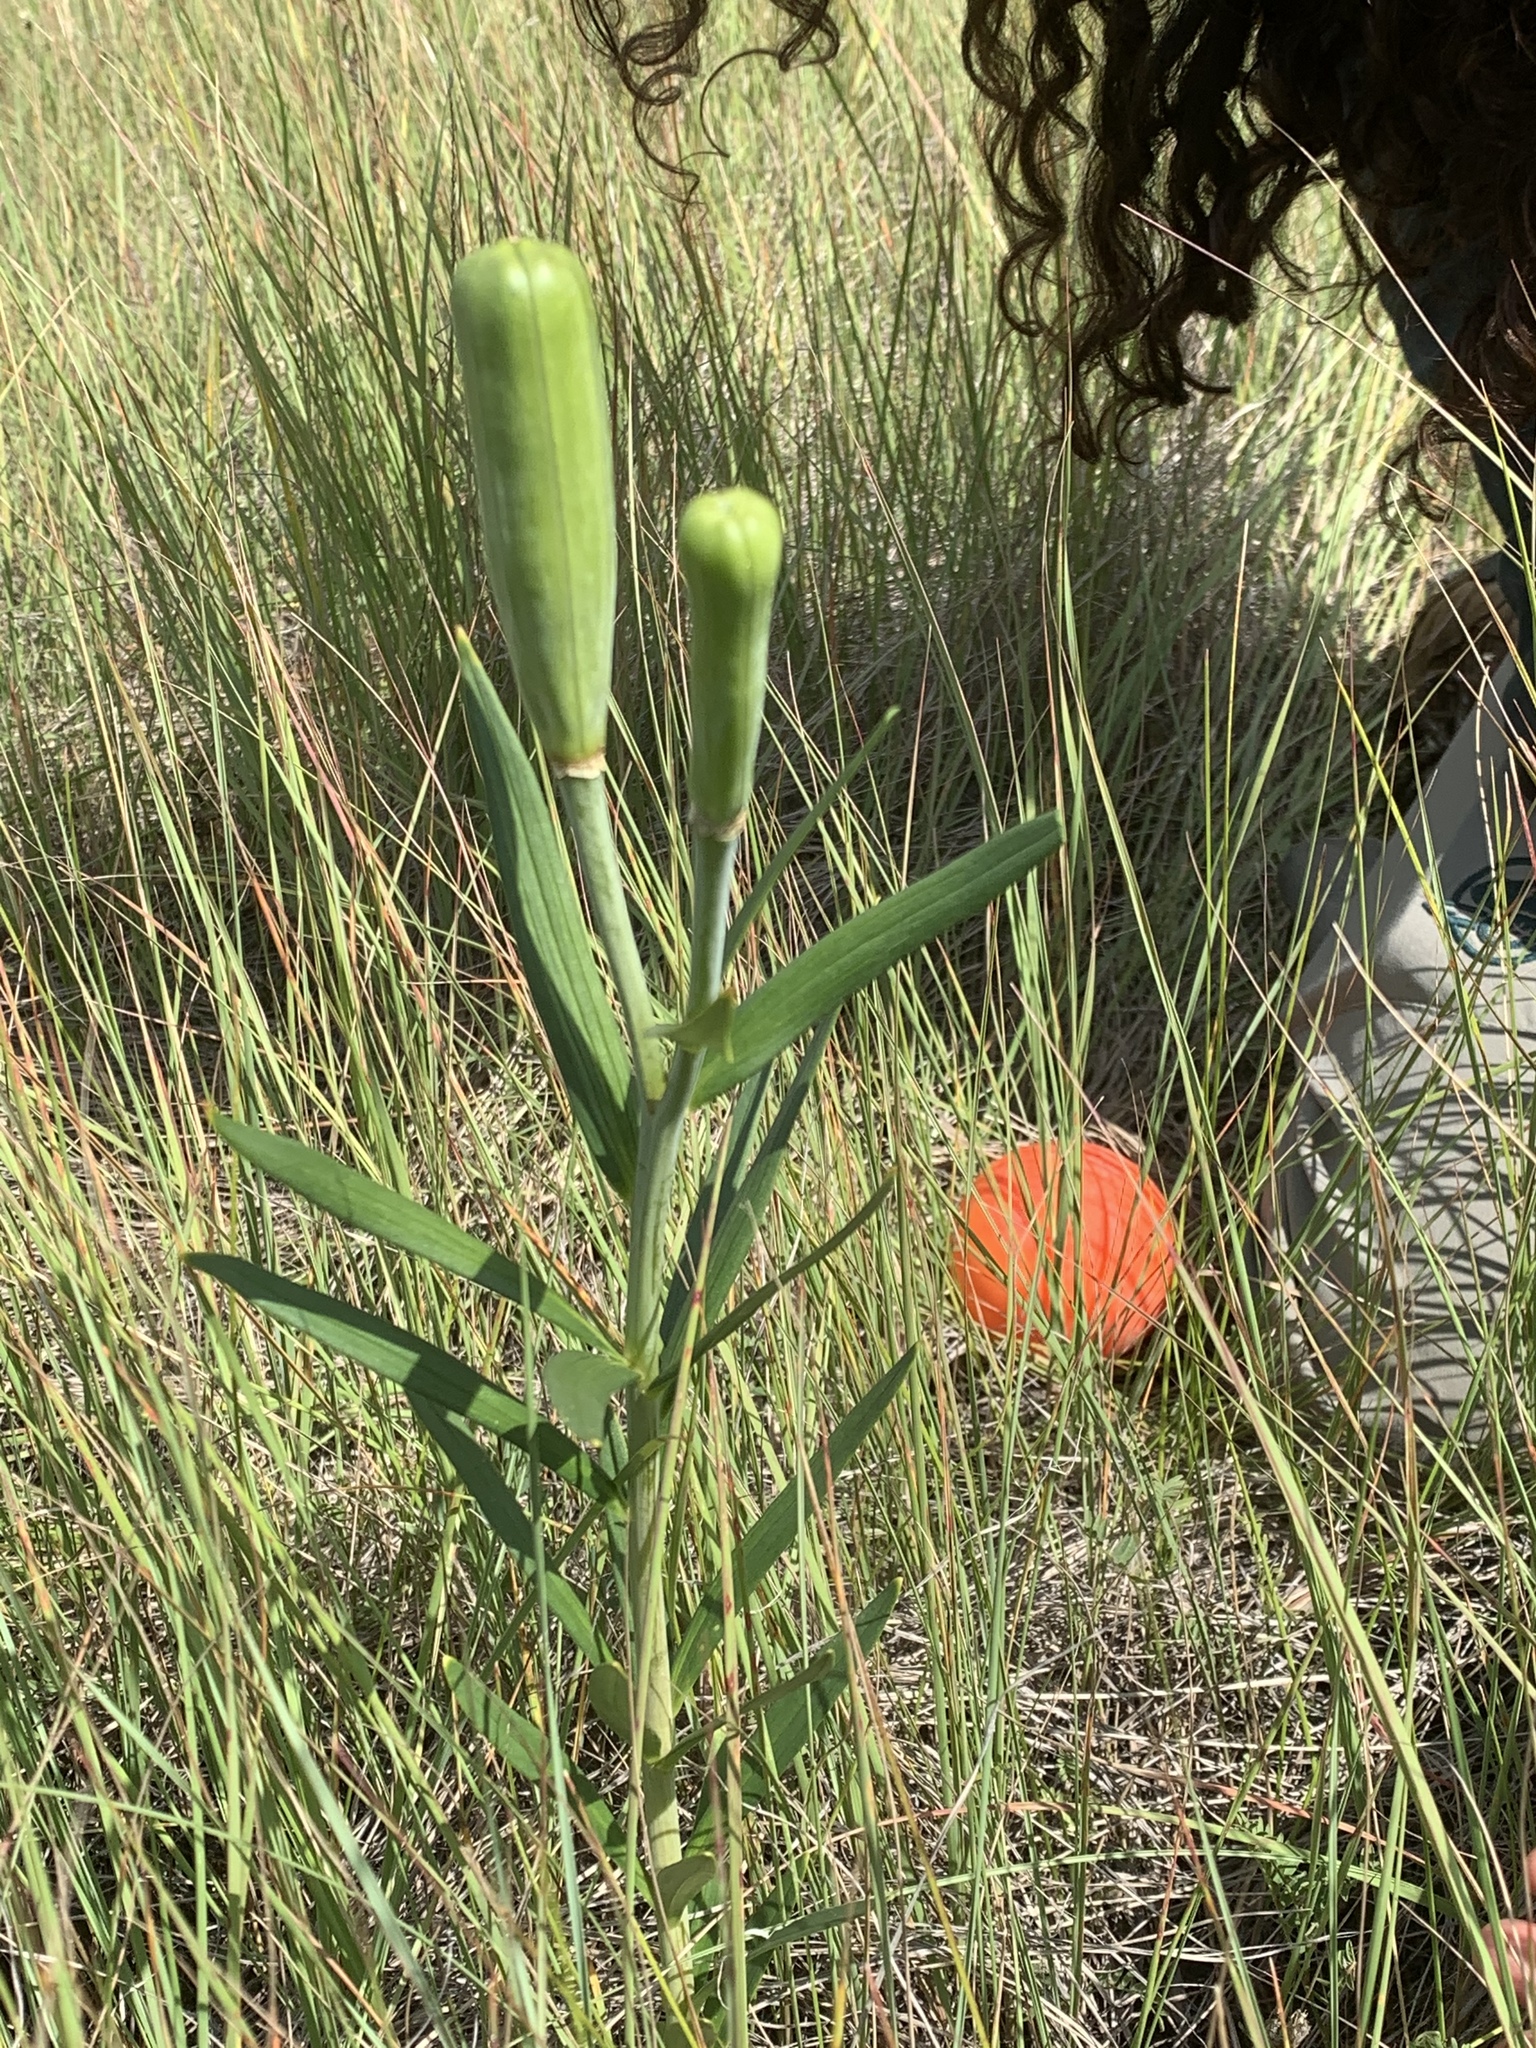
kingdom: Plantae
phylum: Tracheophyta
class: Liliopsida
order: Liliales
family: Liliaceae
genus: Lilium
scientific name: Lilium philadelphicum
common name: Red lily
